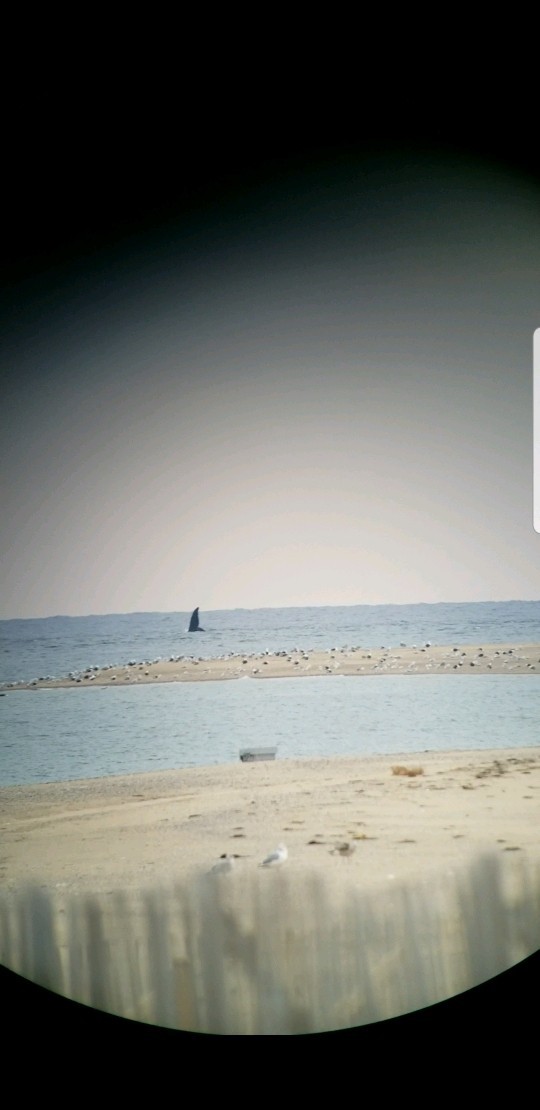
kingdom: Animalia
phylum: Chordata
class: Mammalia
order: Cetacea
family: Balaenidae
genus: Eubalaena
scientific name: Eubalaena glacialis
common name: North atlantic right whale
